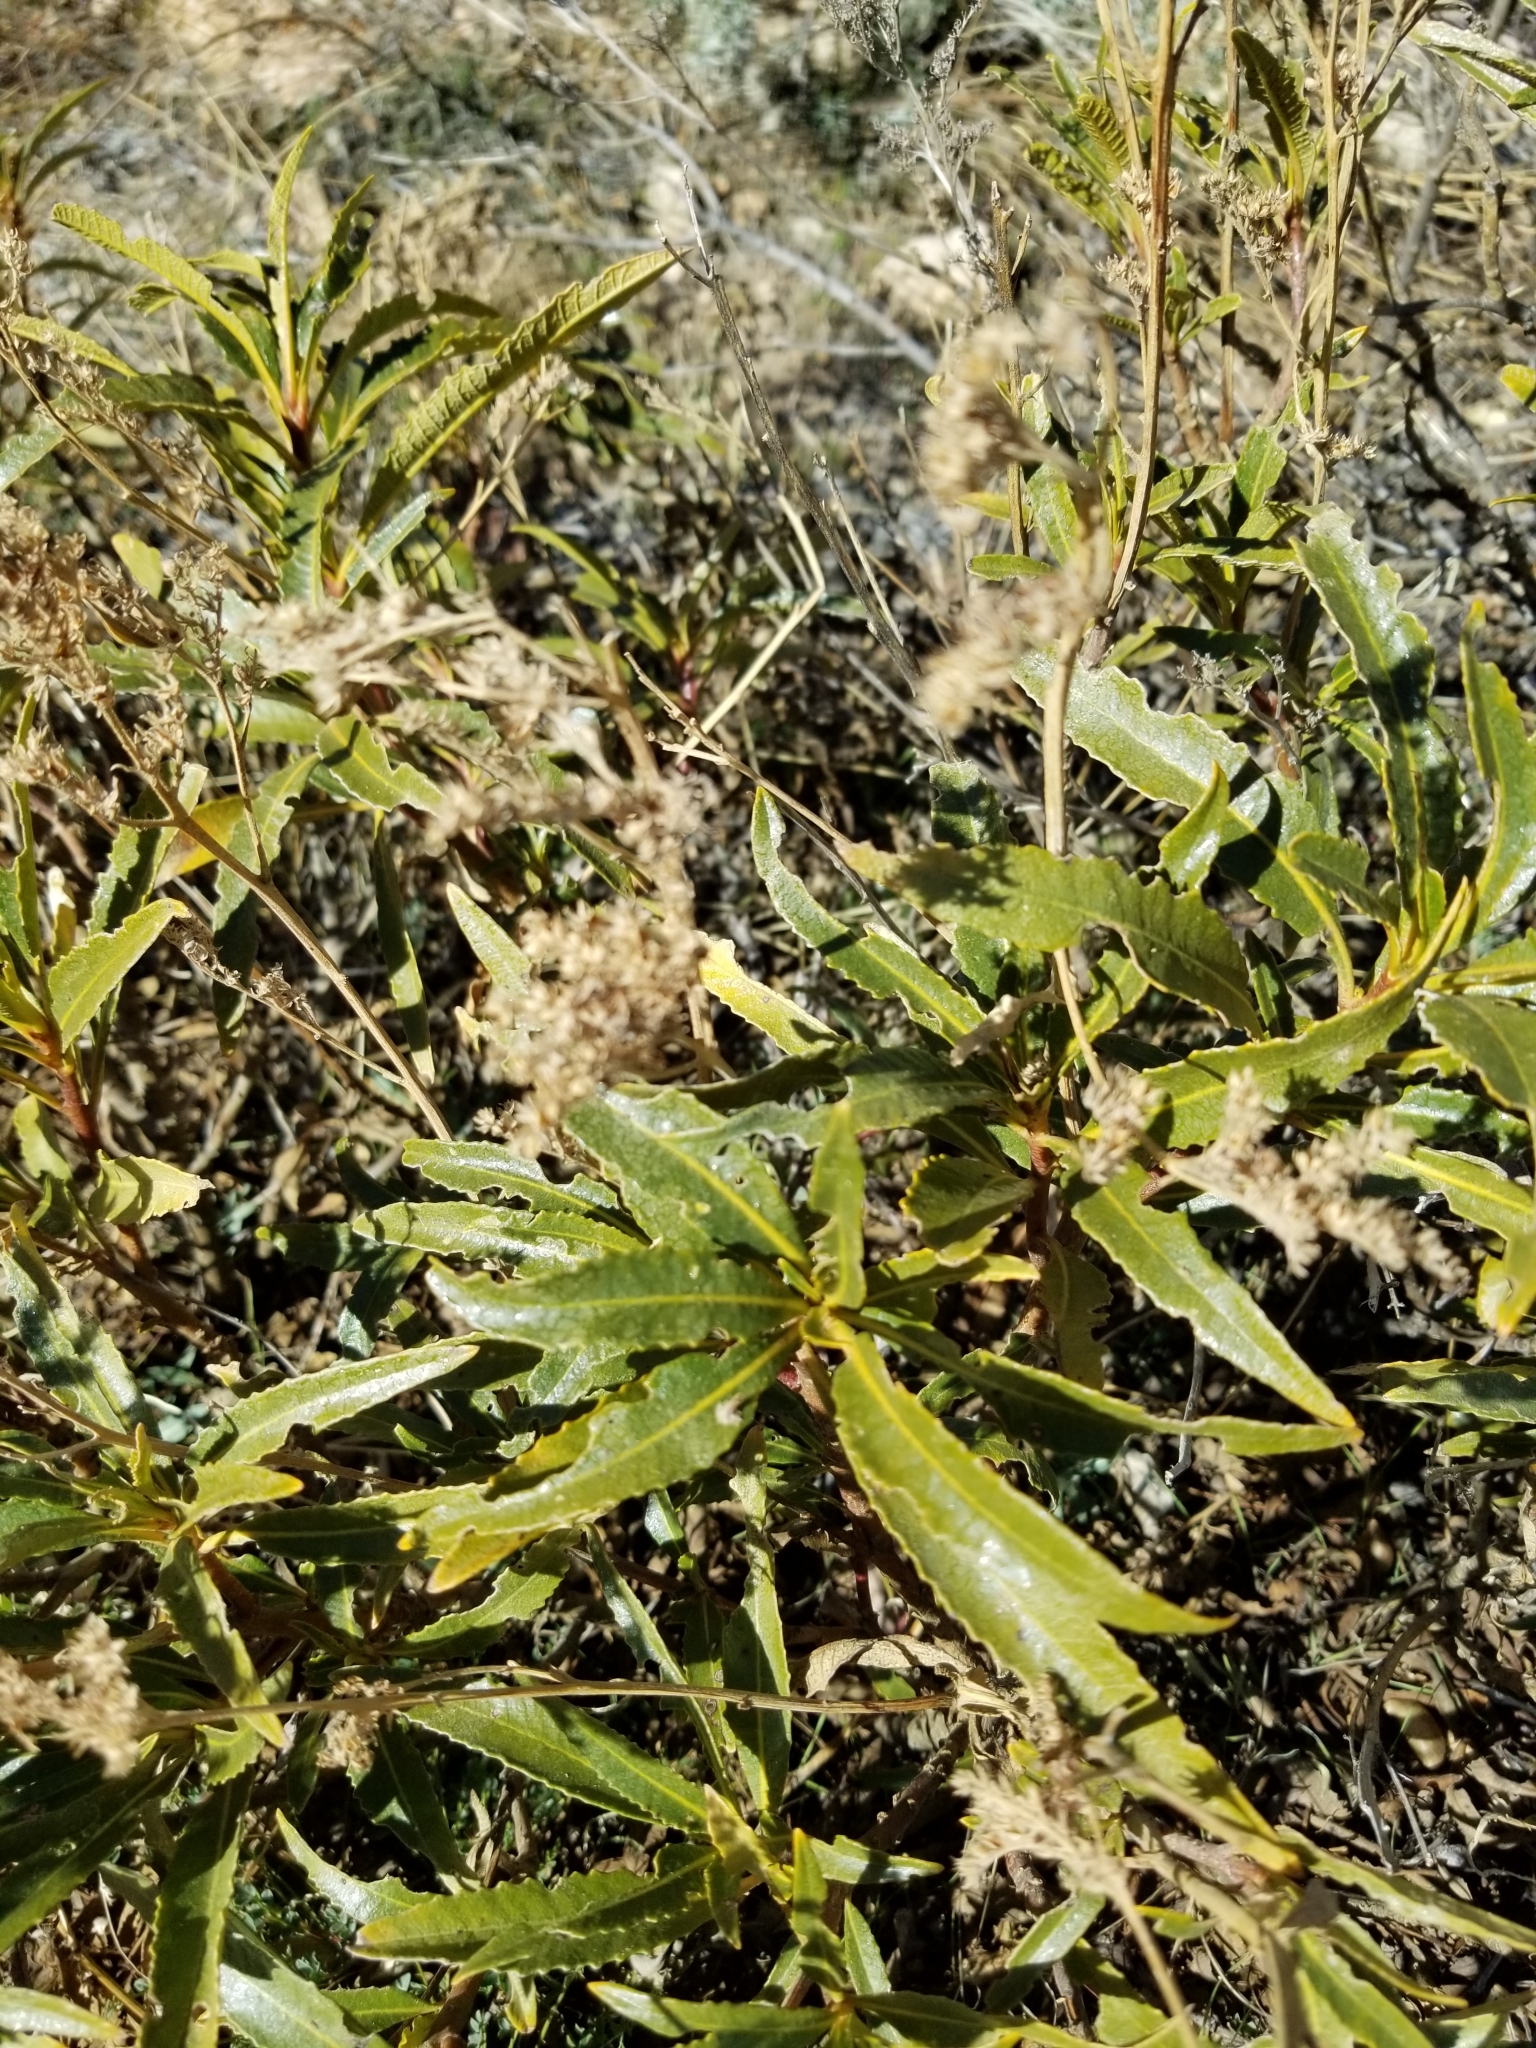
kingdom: Plantae
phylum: Tracheophyta
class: Magnoliopsida
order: Boraginales
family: Namaceae
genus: Eriodictyon
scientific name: Eriodictyon trichocalyx
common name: Hairy yerba-santa
